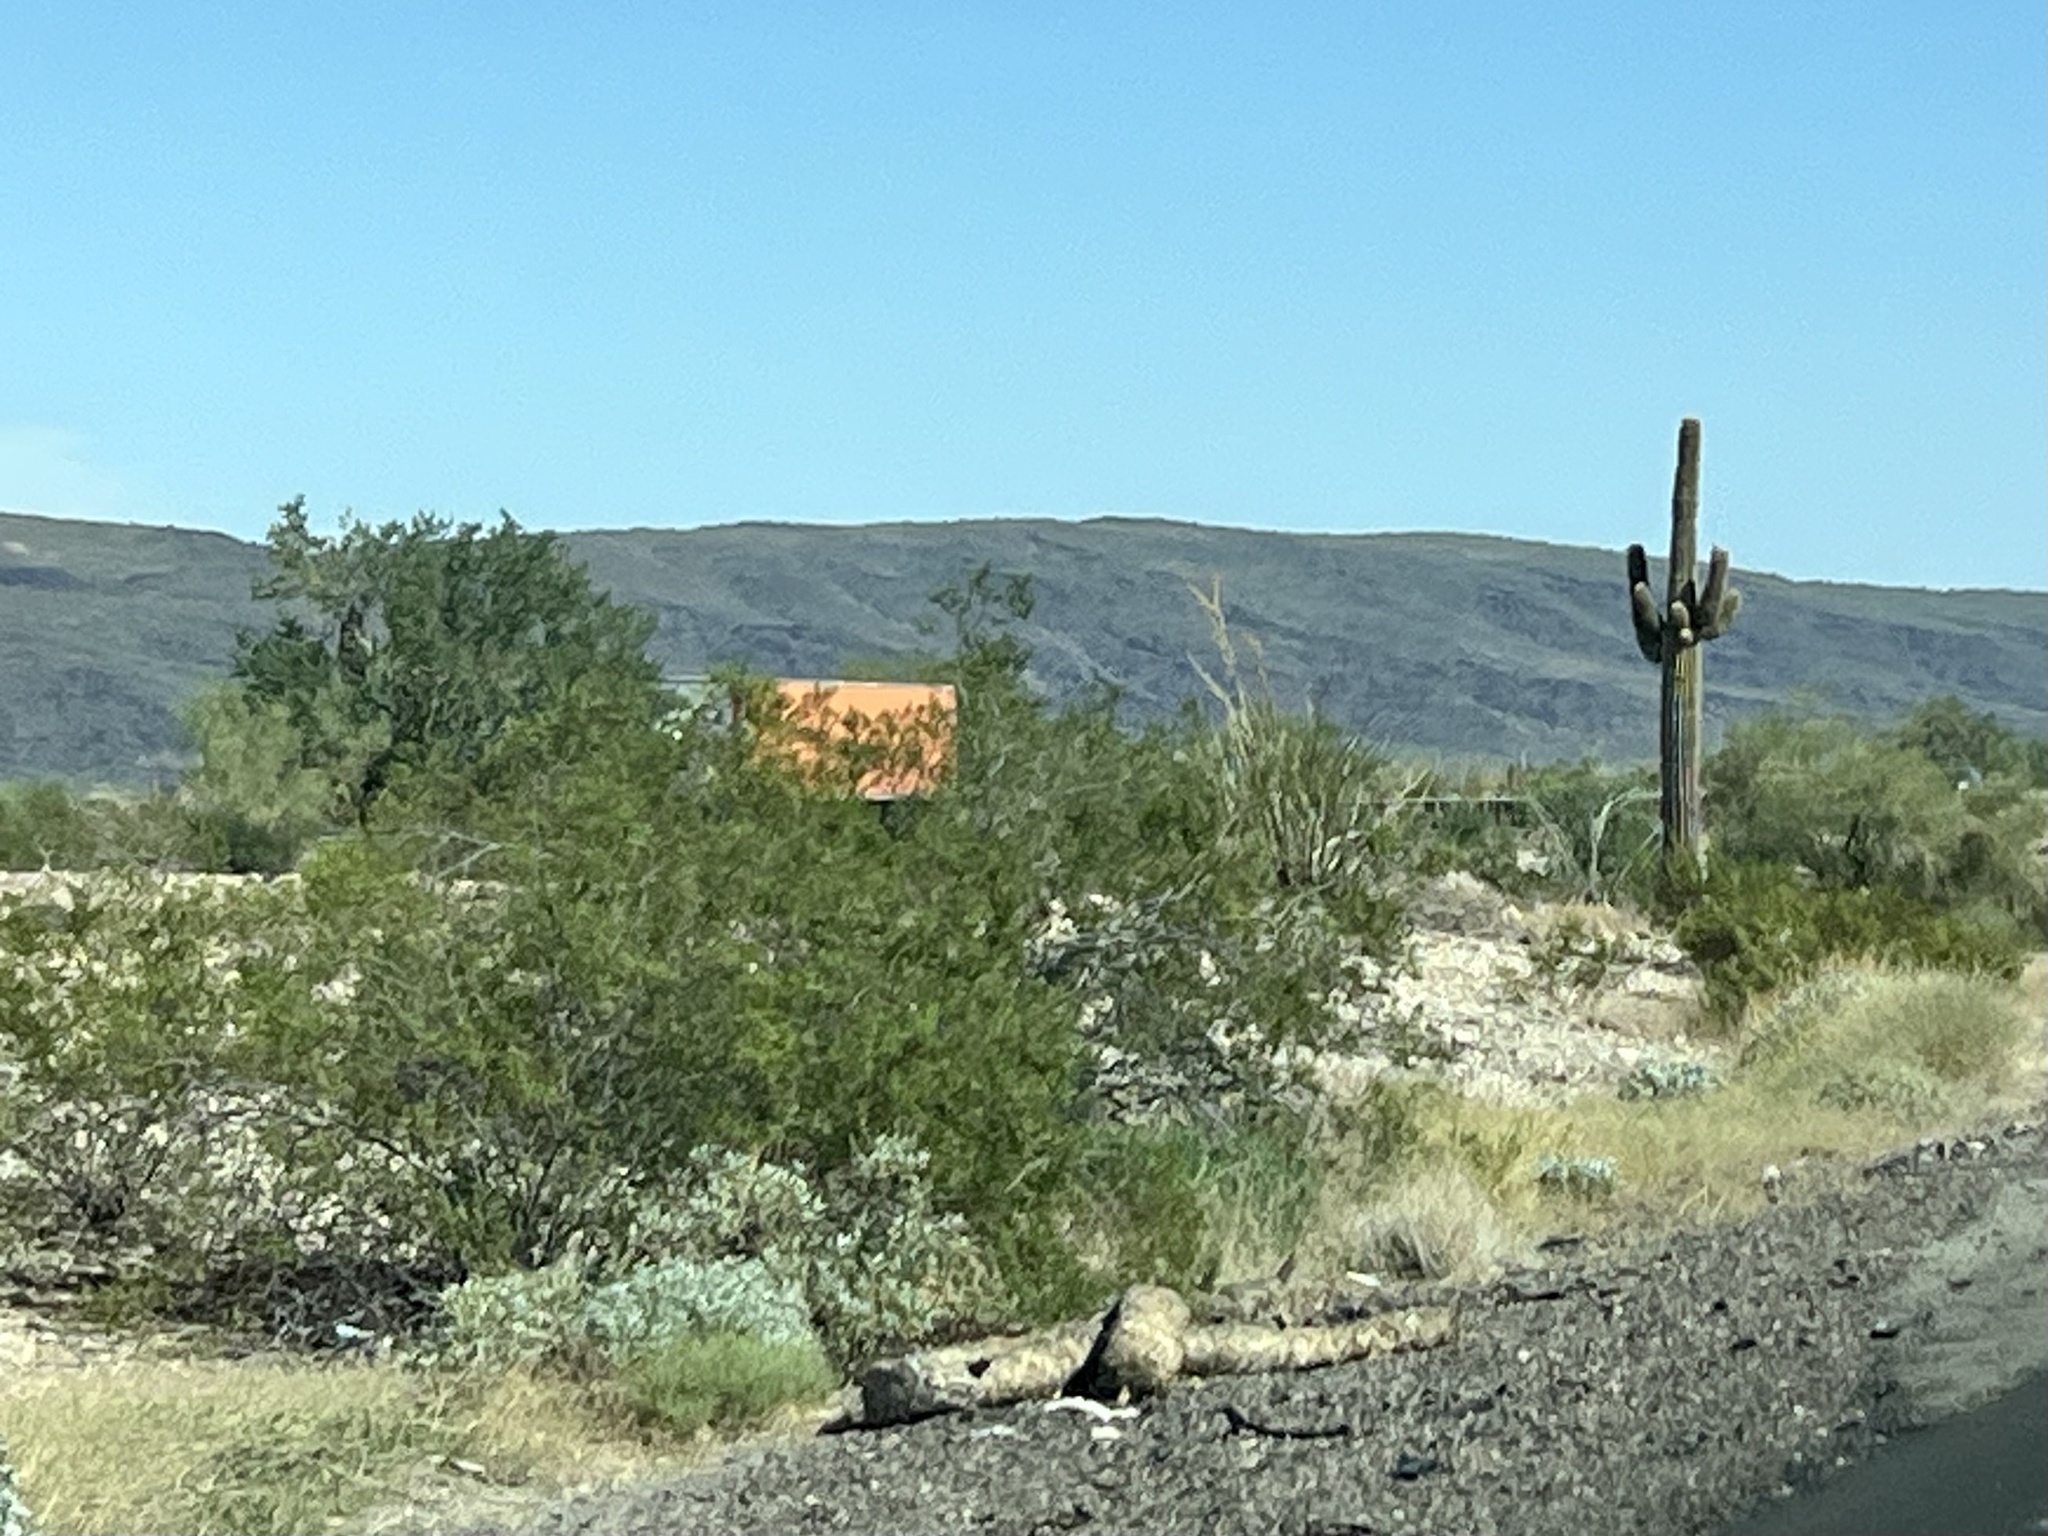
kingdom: Plantae
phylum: Tracheophyta
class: Magnoliopsida
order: Zygophyllales
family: Zygophyllaceae
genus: Larrea
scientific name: Larrea tridentata
